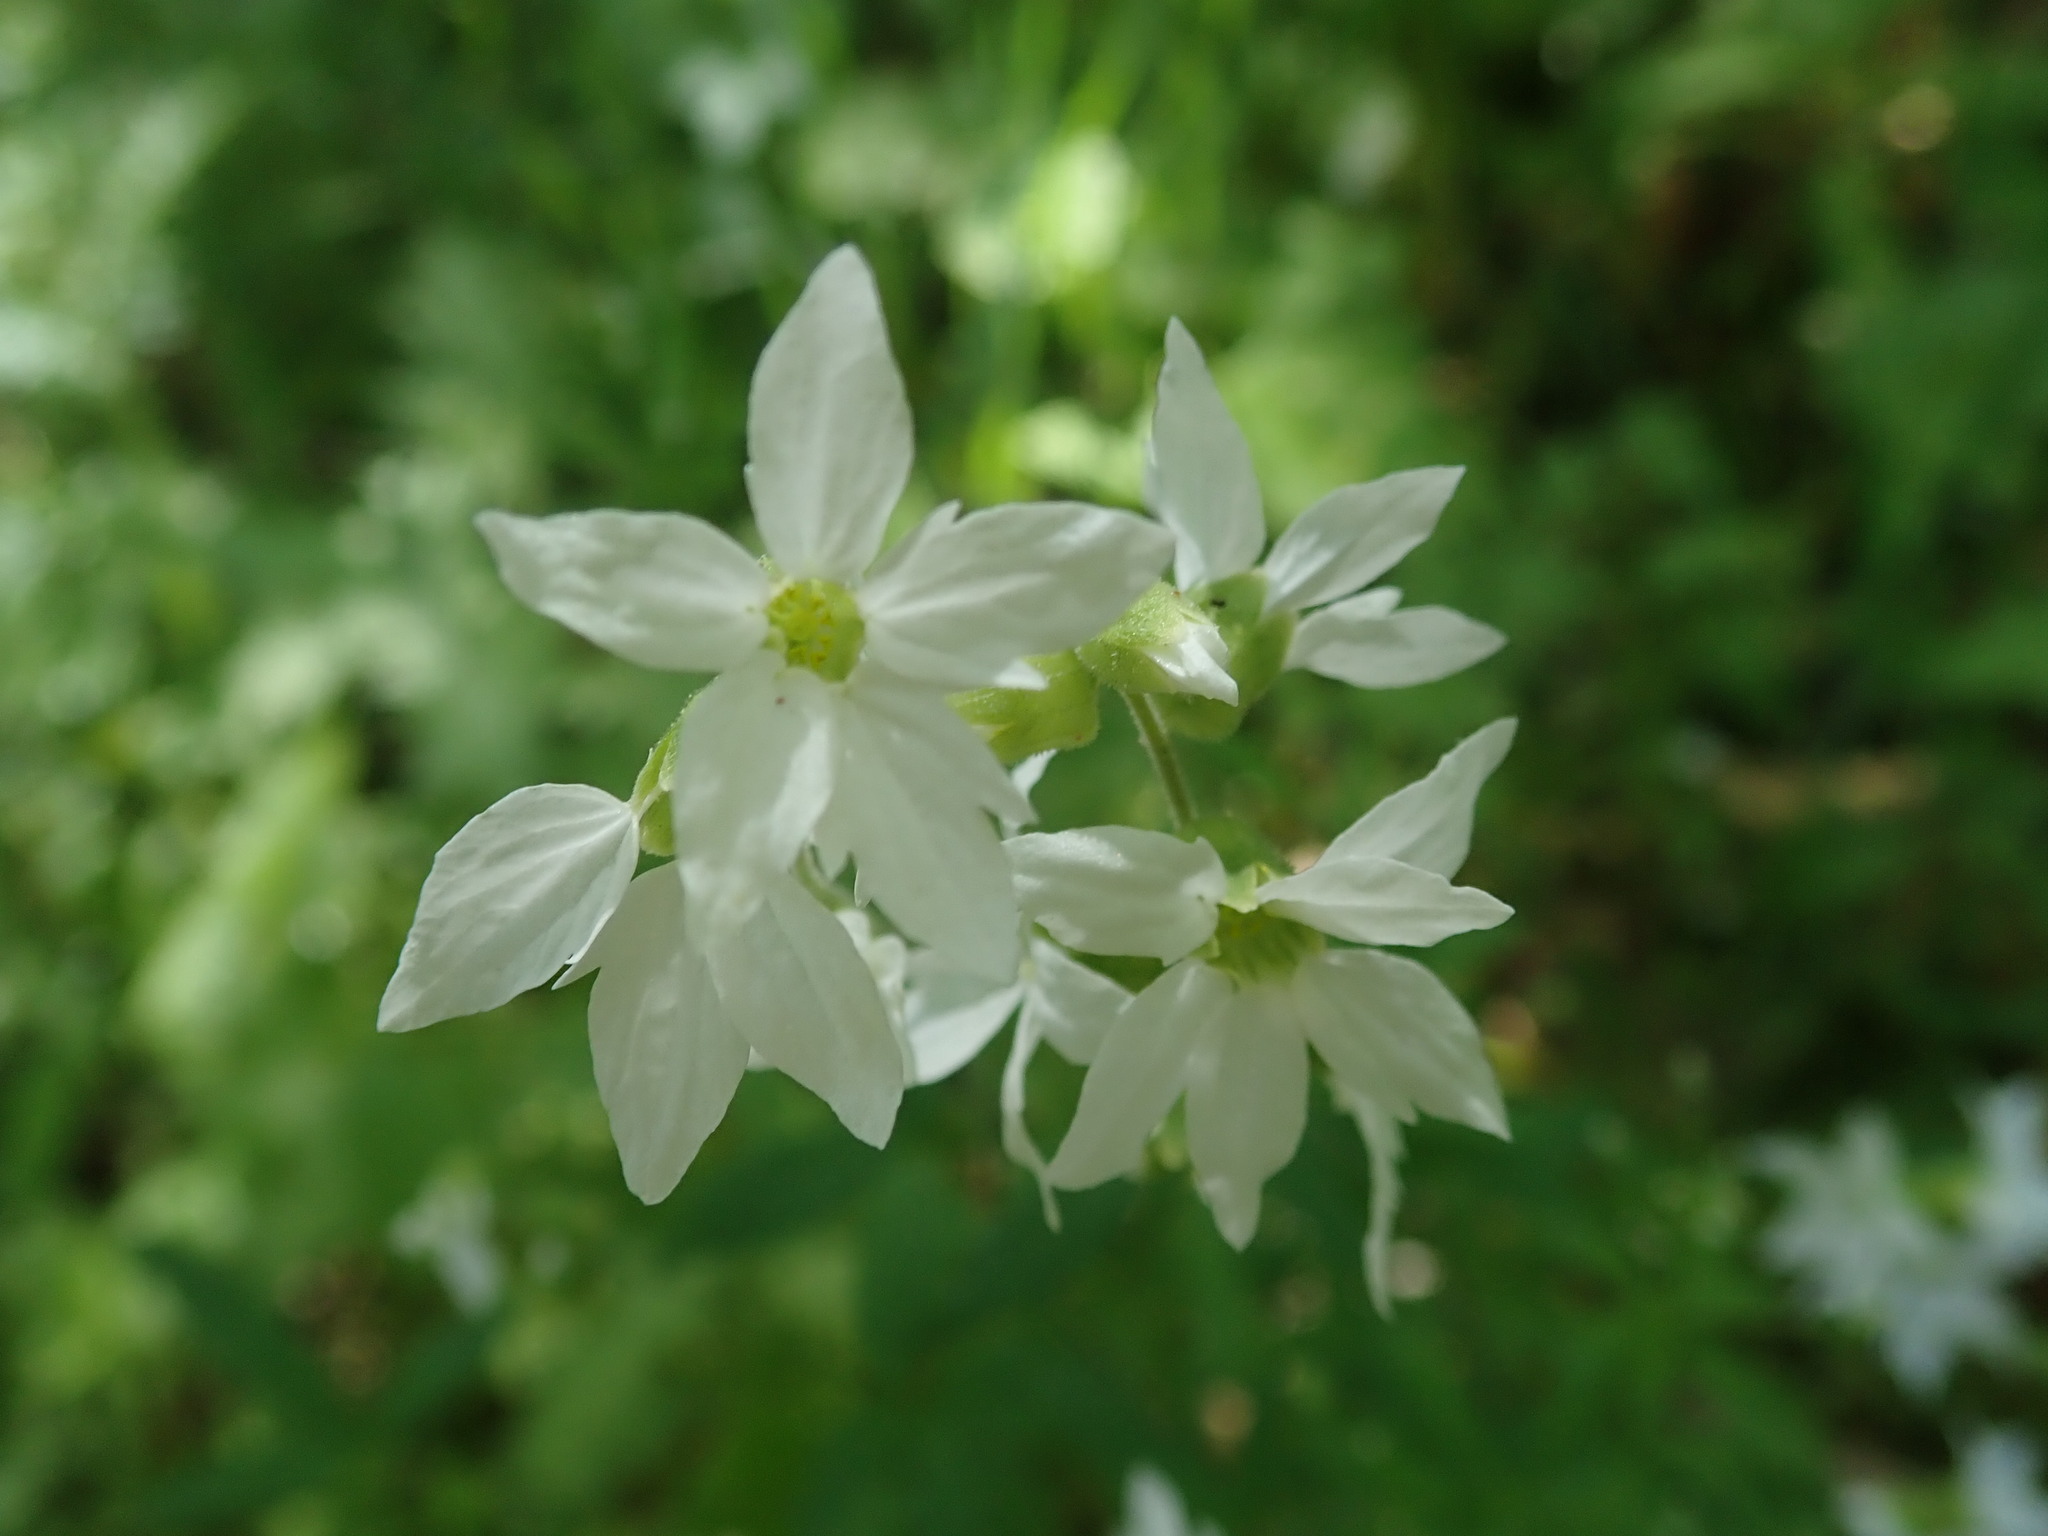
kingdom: Plantae
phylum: Tracheophyta
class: Magnoliopsida
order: Saxifragales
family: Saxifragaceae
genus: Lithophragma
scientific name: Lithophragma heterophyllum
